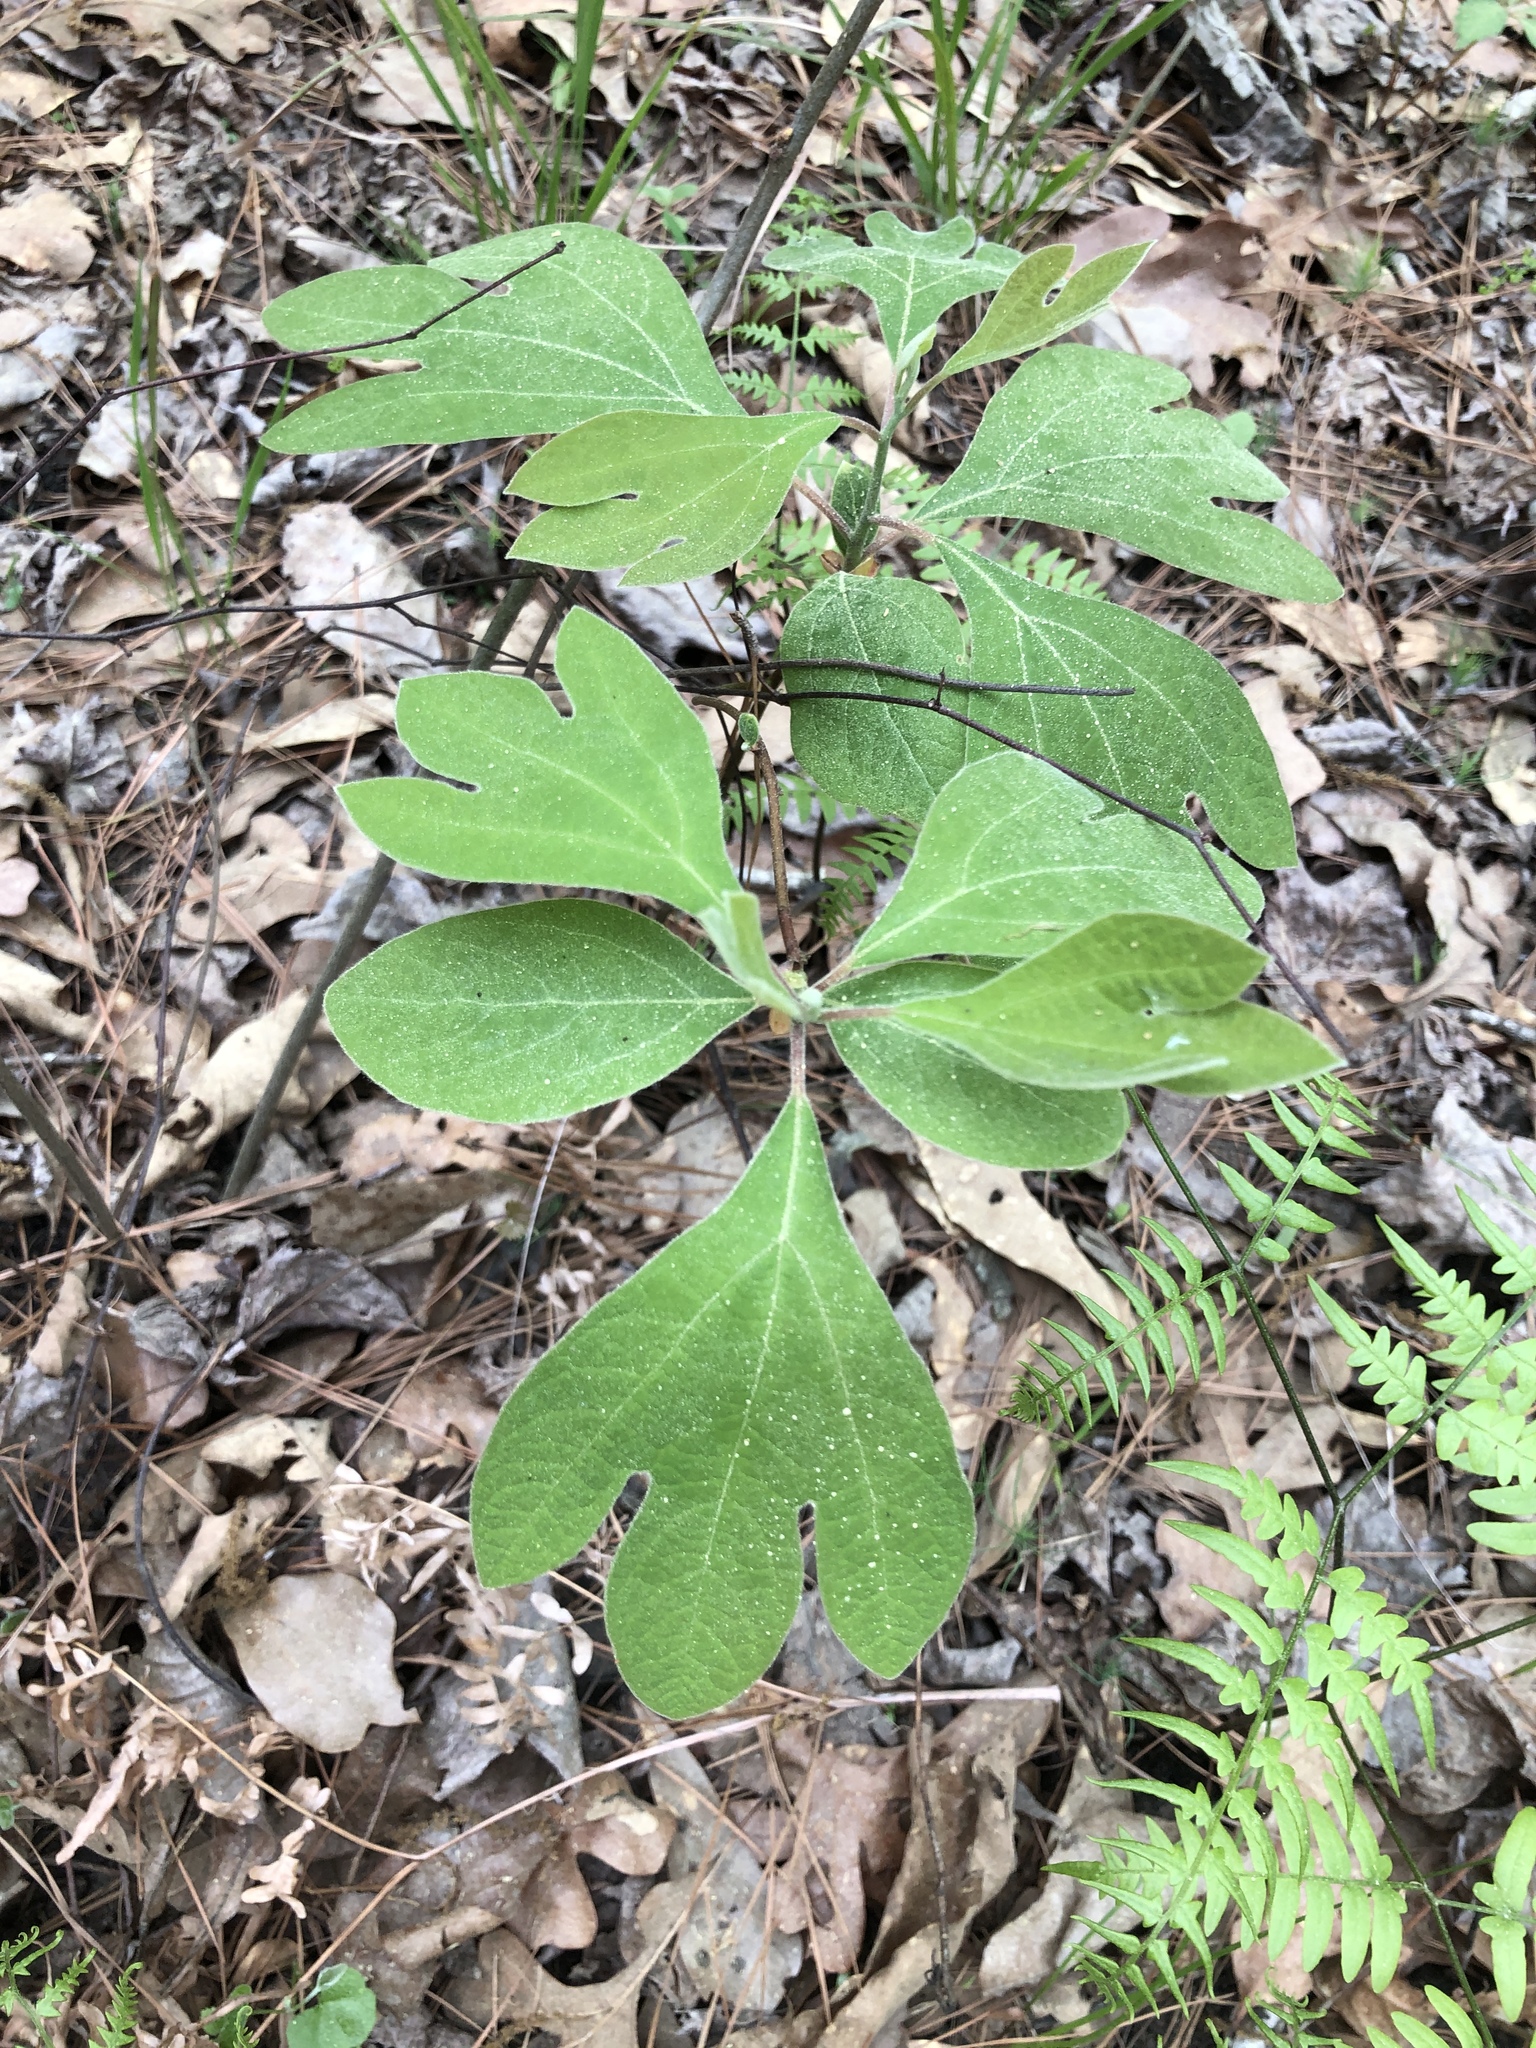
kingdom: Plantae
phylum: Tracheophyta
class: Magnoliopsida
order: Laurales
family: Lauraceae
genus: Sassafras
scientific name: Sassafras albidum
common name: Sassafras
